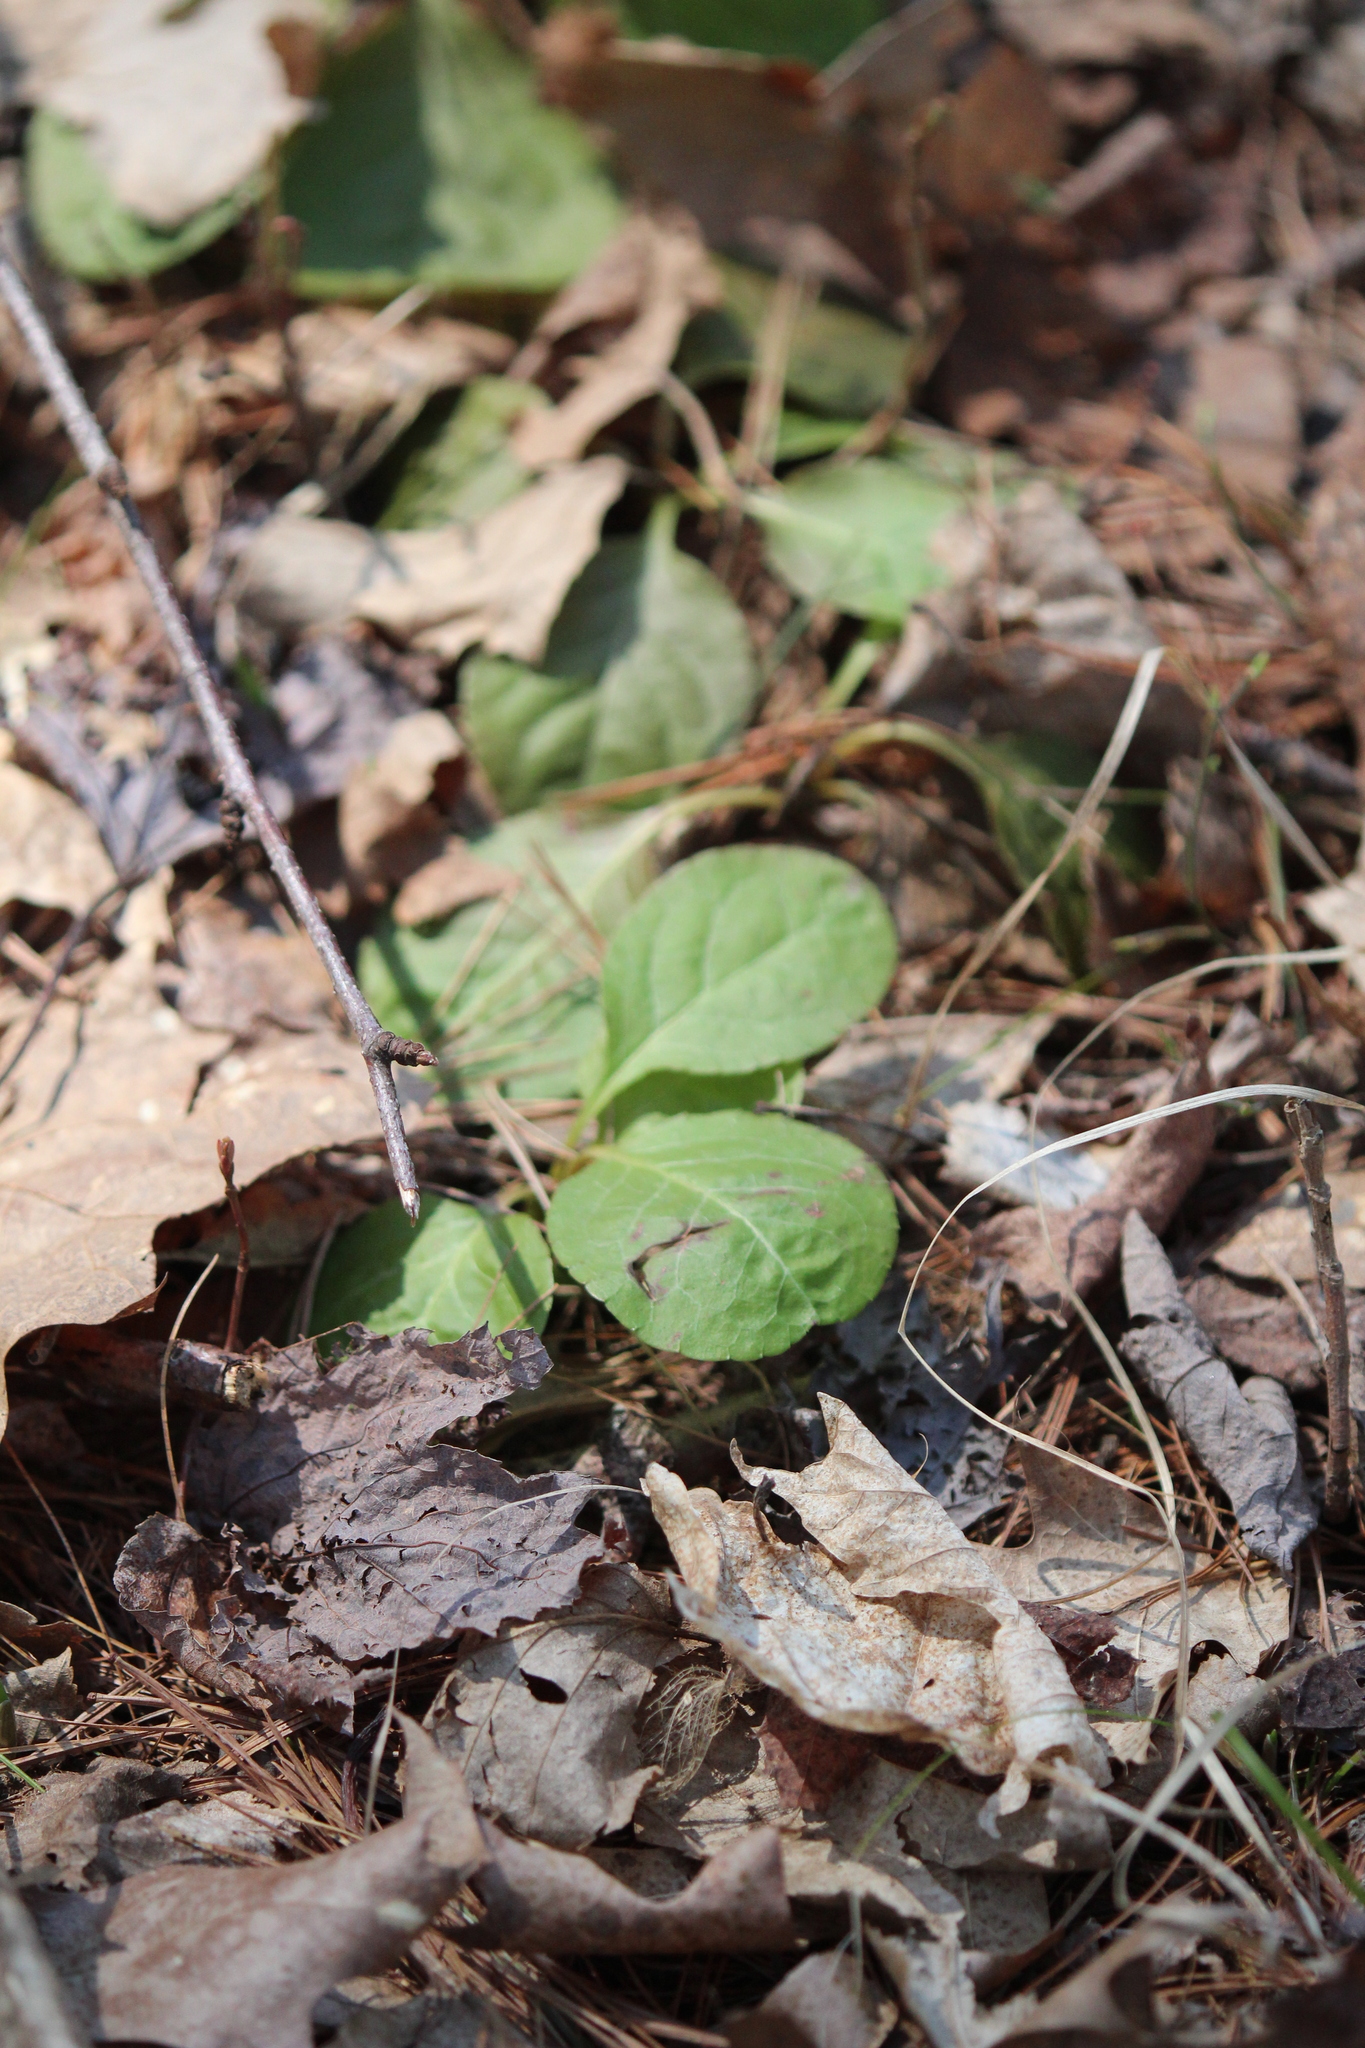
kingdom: Plantae
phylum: Tracheophyta
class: Magnoliopsida
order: Ericales
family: Ericaceae
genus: Pyrola
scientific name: Pyrola elliptica
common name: Shinleaf
